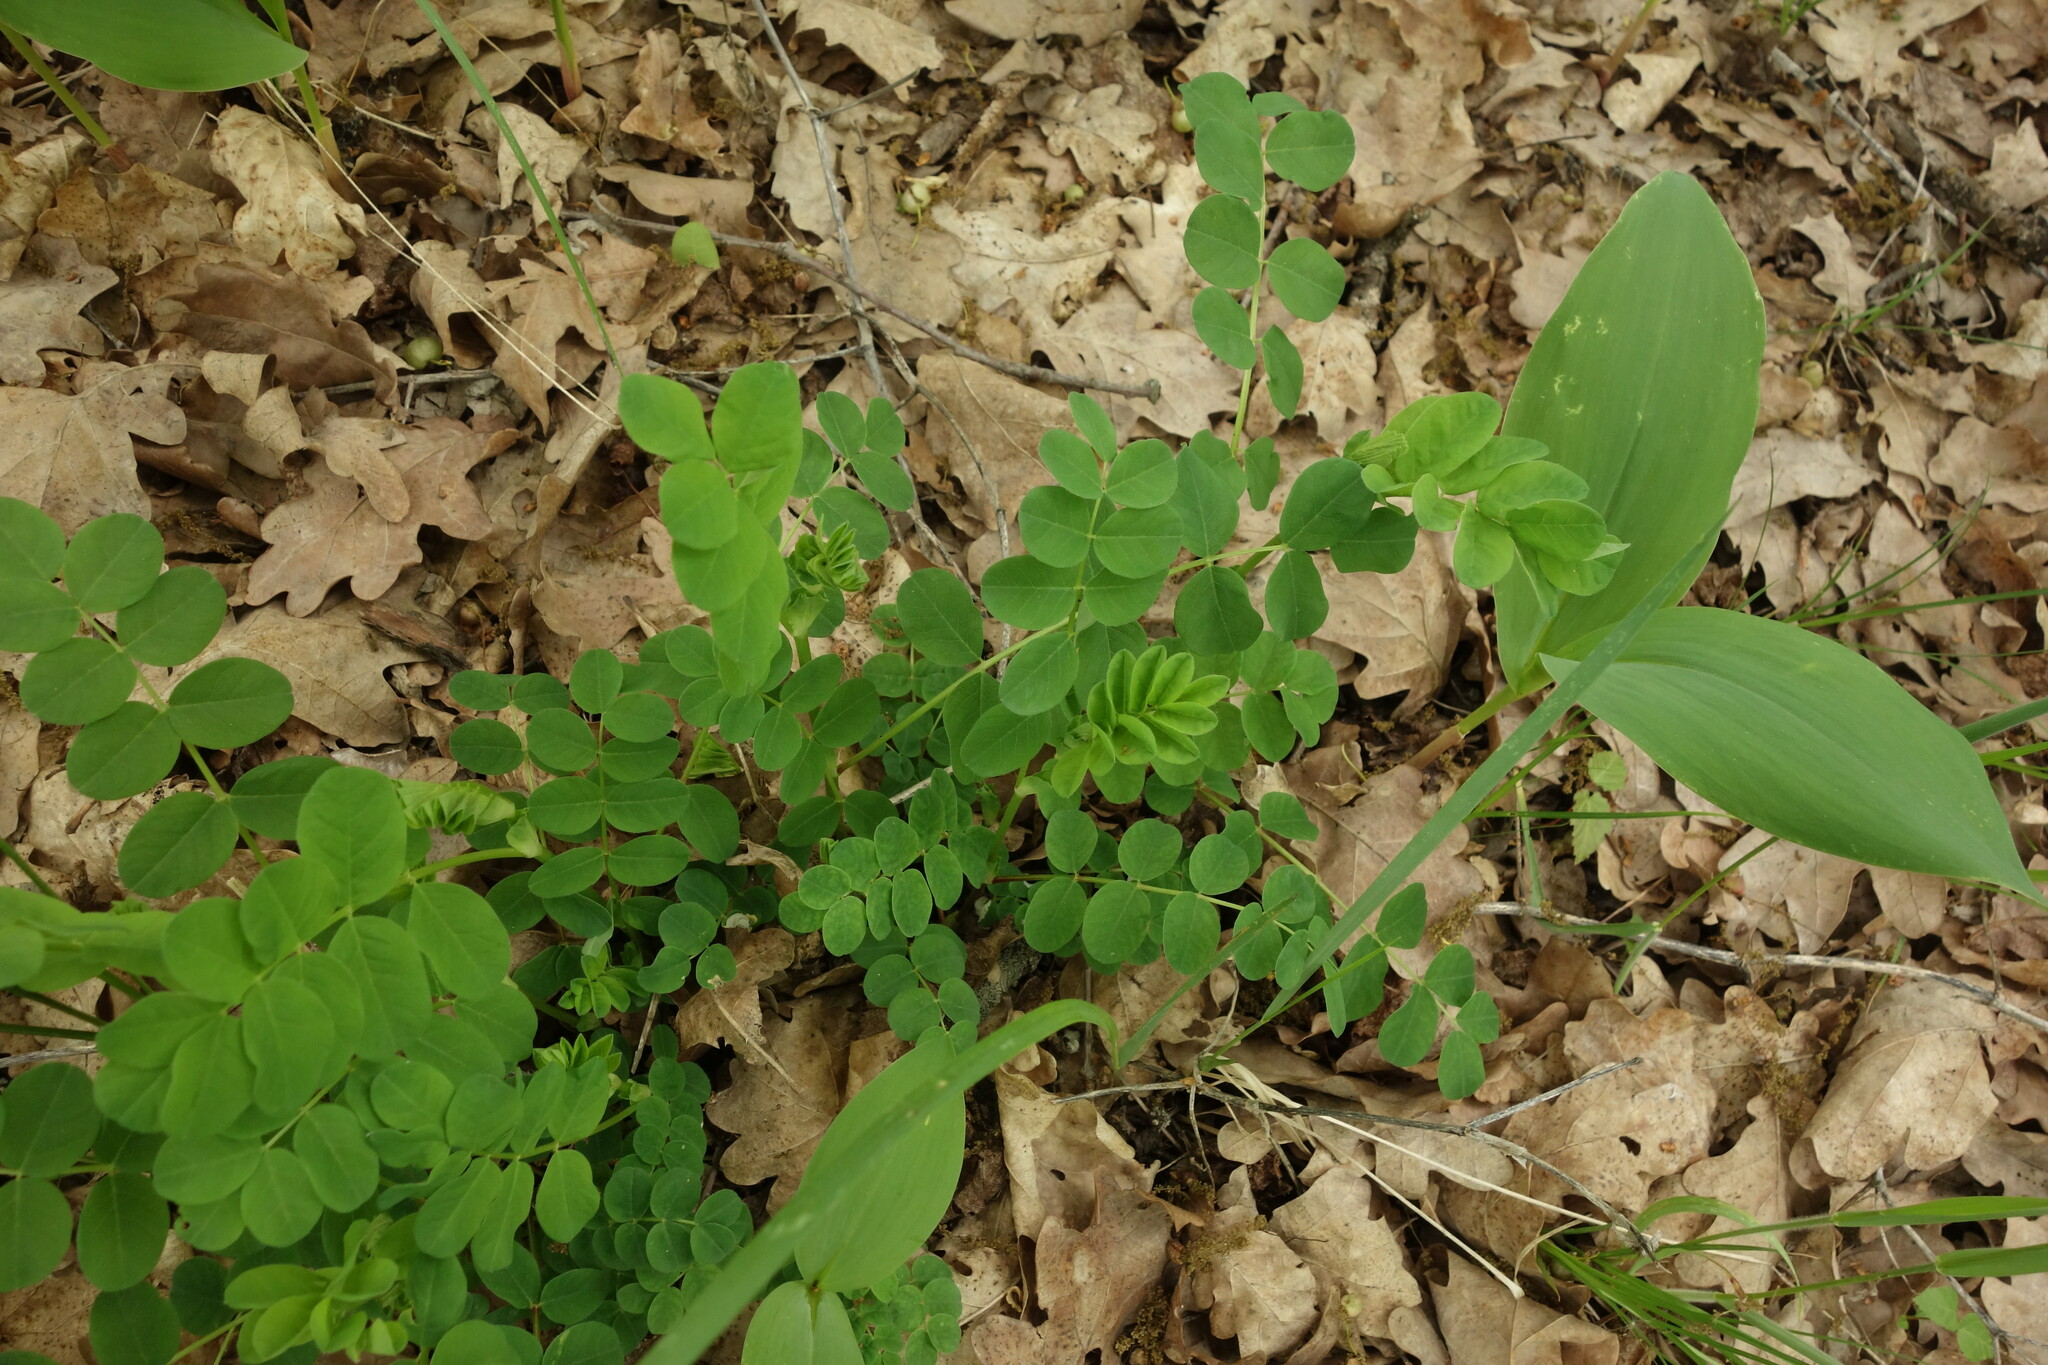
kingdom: Plantae
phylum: Tracheophyta
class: Magnoliopsida
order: Fabales
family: Fabaceae
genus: Astragalus
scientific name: Astragalus glycyphyllos
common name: Wild liquorice
